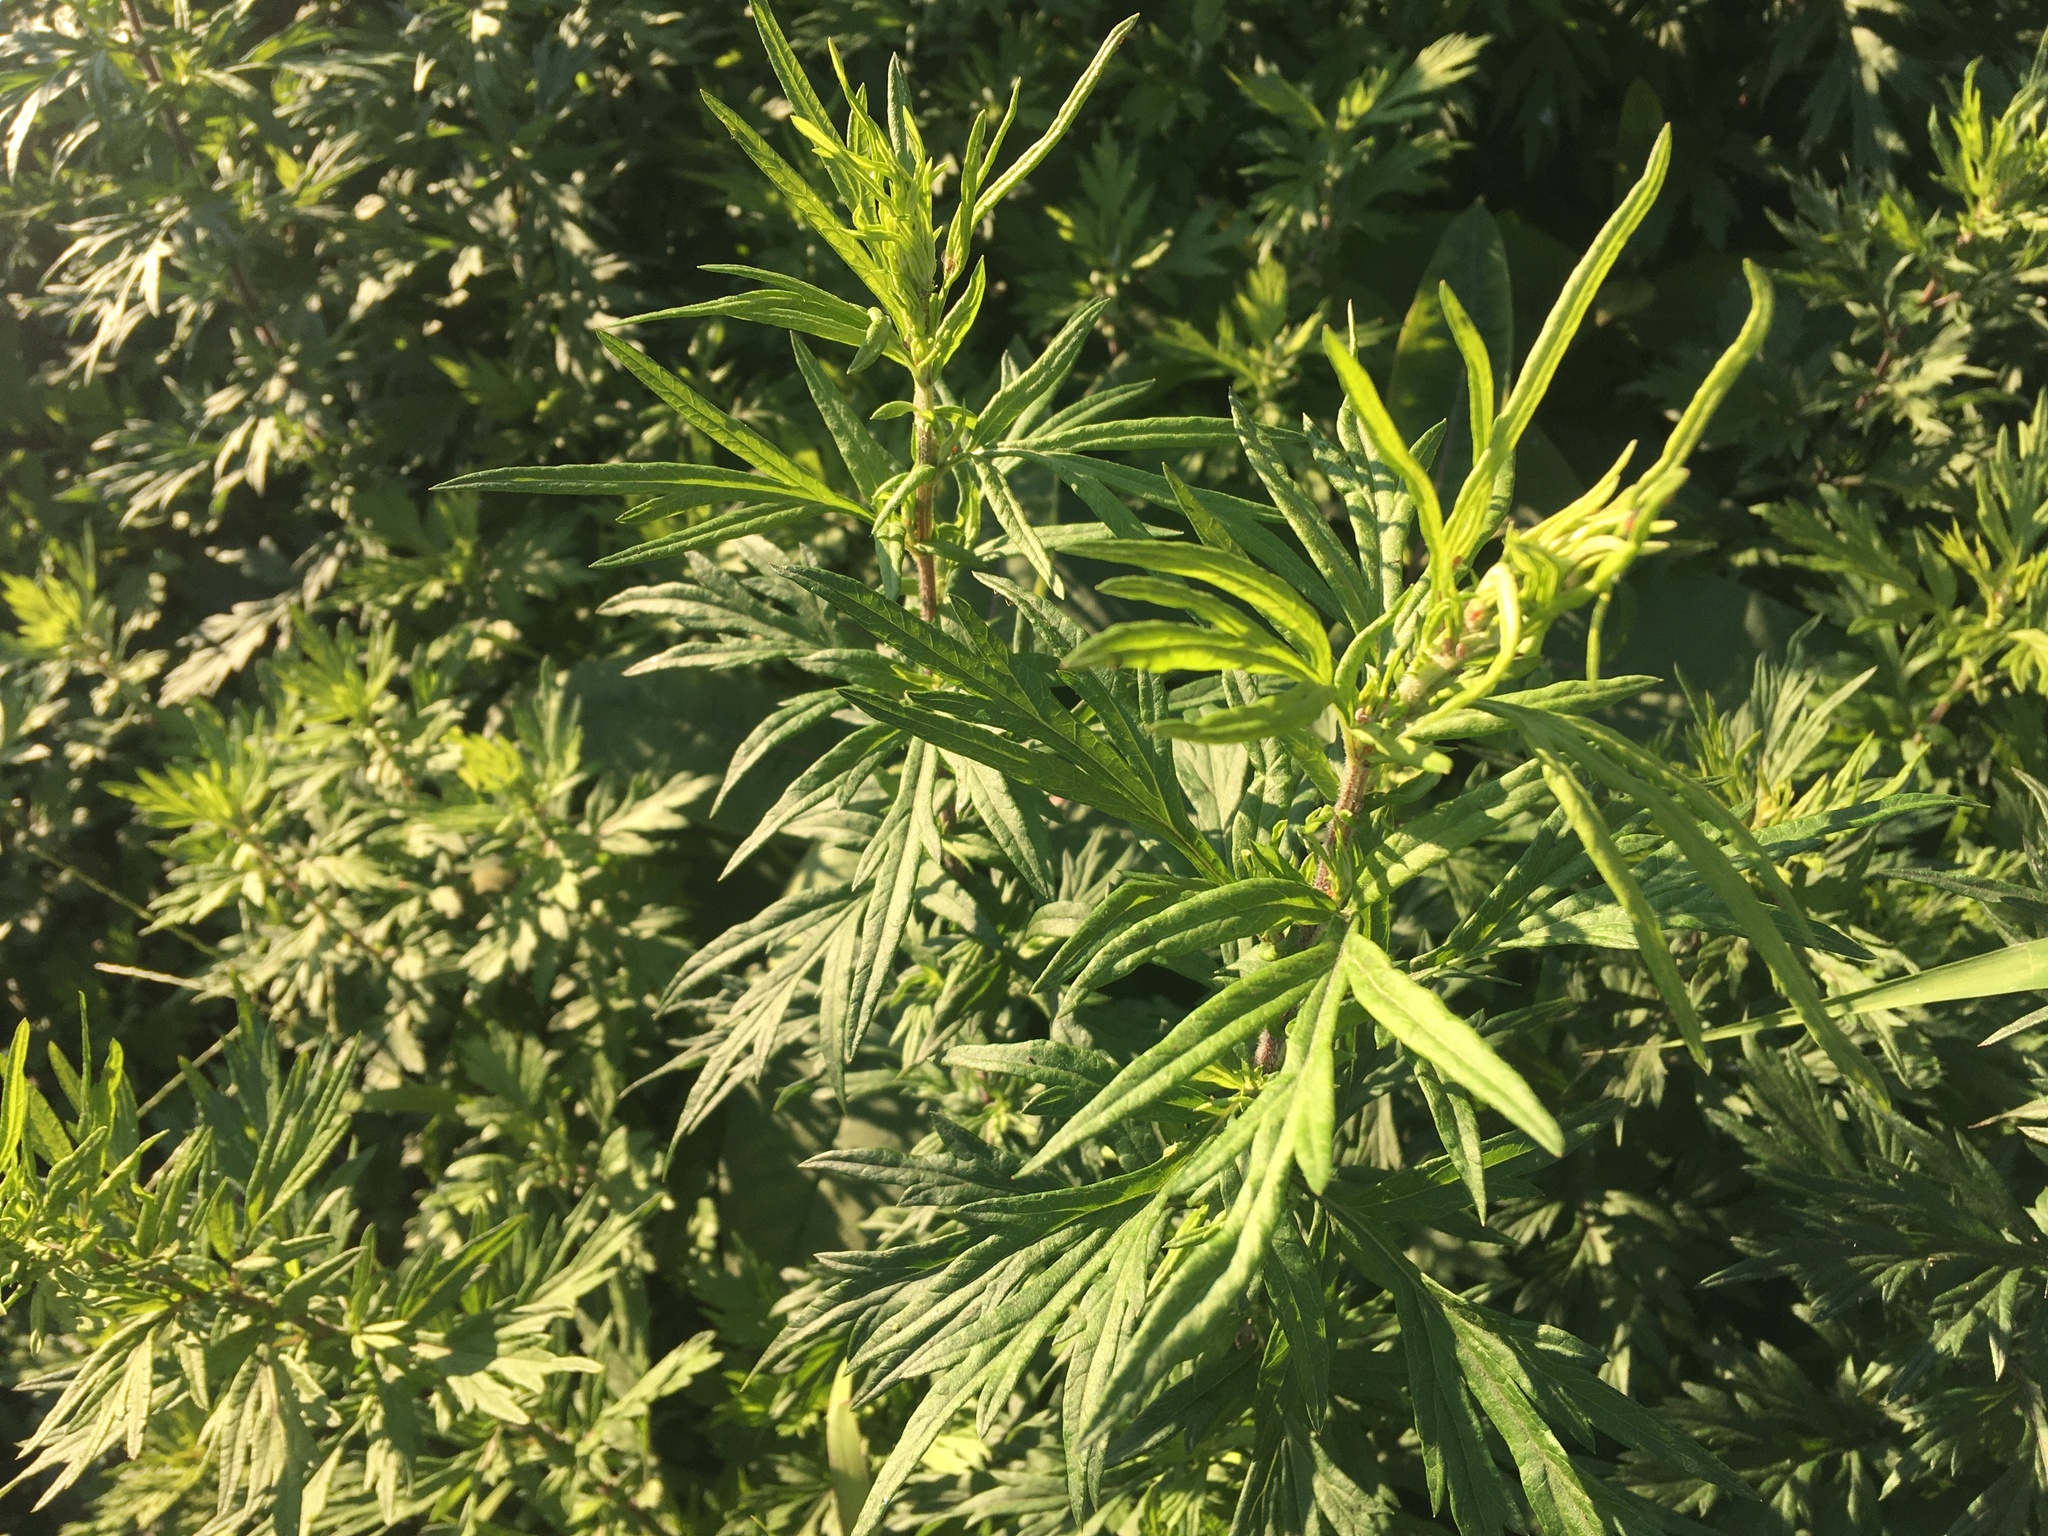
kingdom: Plantae
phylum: Tracheophyta
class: Magnoliopsida
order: Asterales
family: Asteraceae
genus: Artemisia
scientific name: Artemisia vulgaris
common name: Mugwort
